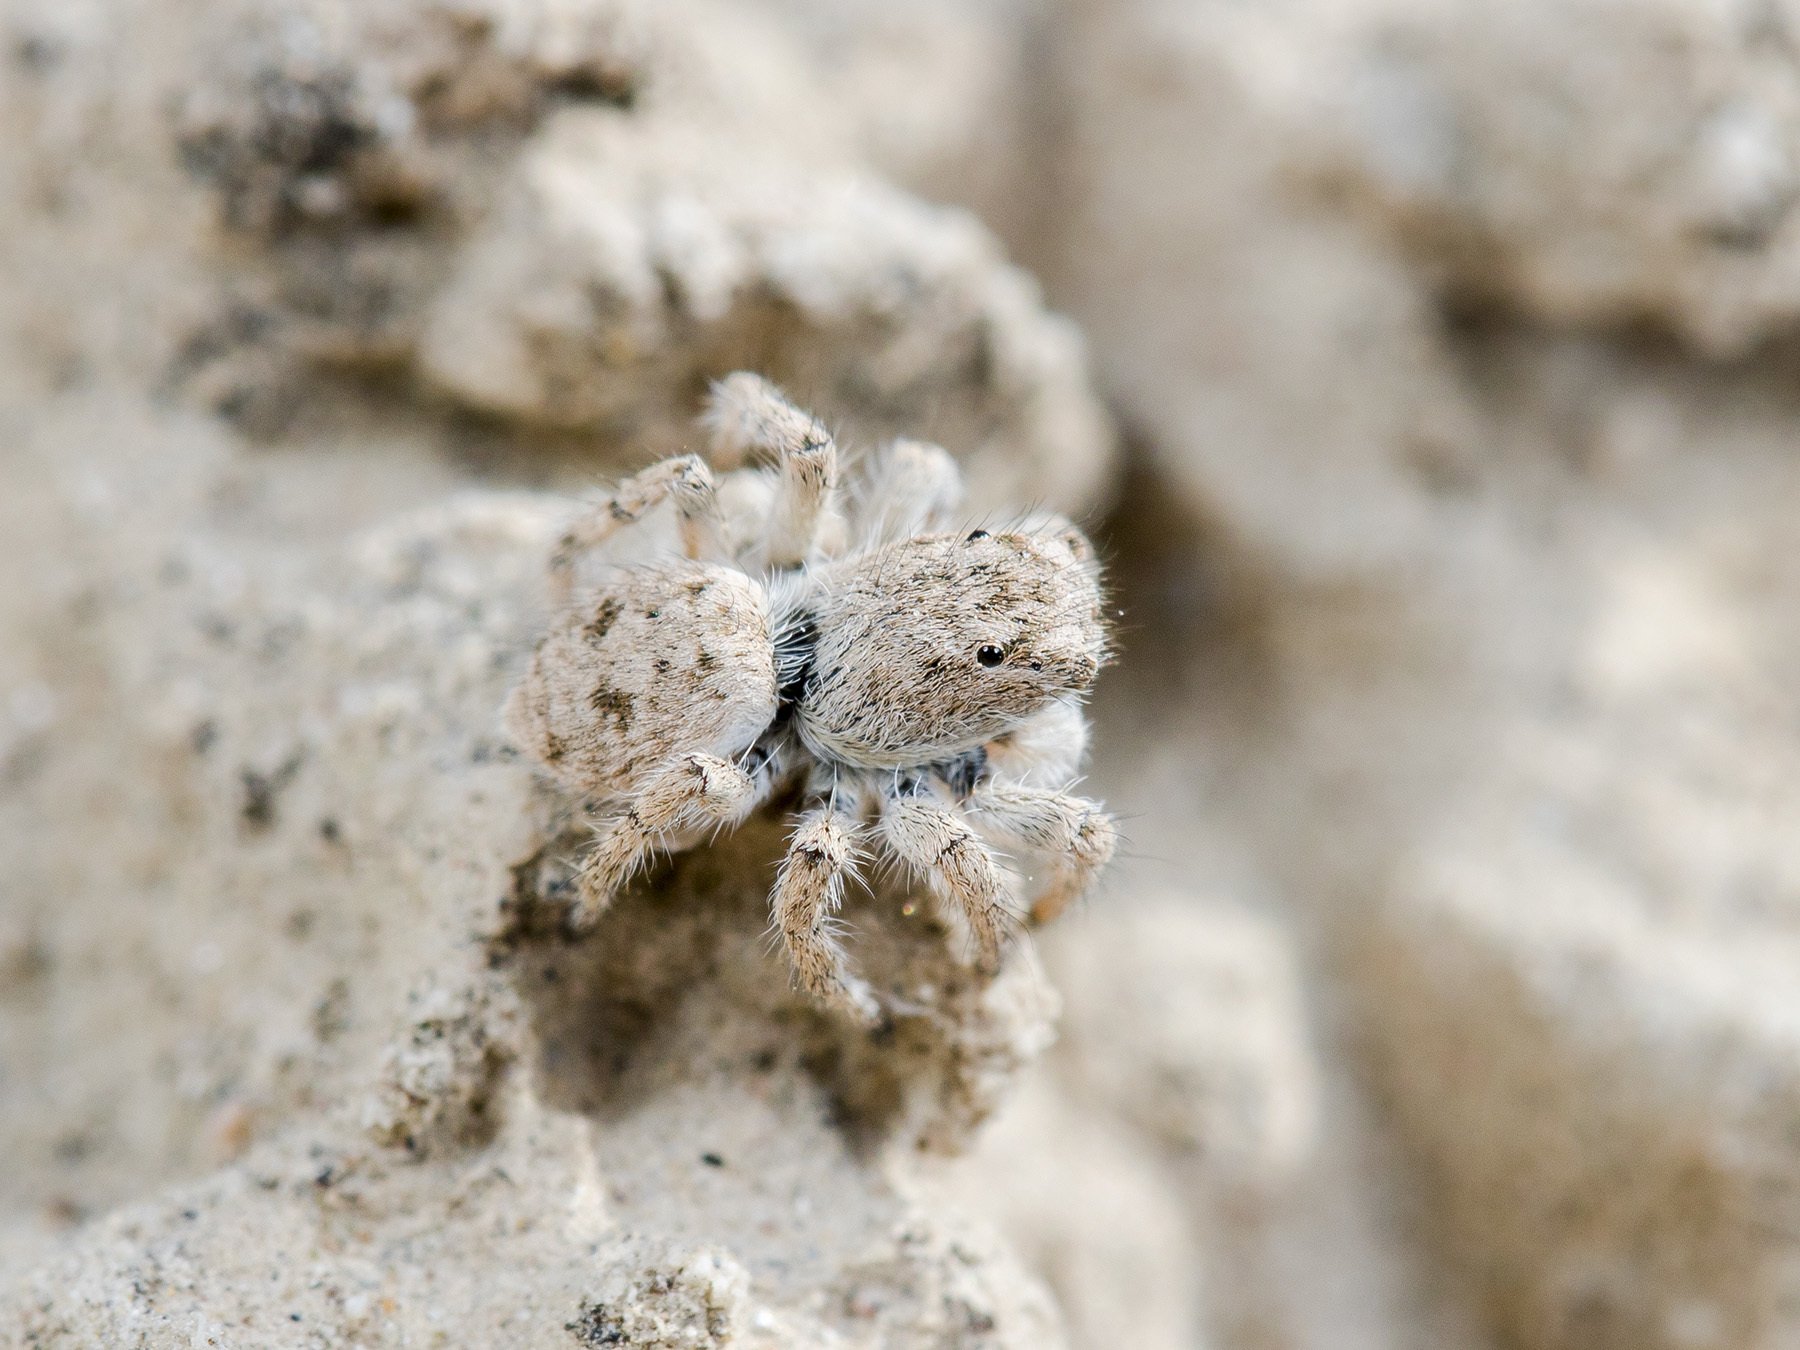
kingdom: Animalia
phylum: Arthropoda
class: Arachnida
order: Araneae
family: Salticidae
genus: Aelurillus
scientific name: Aelurillus concolor
